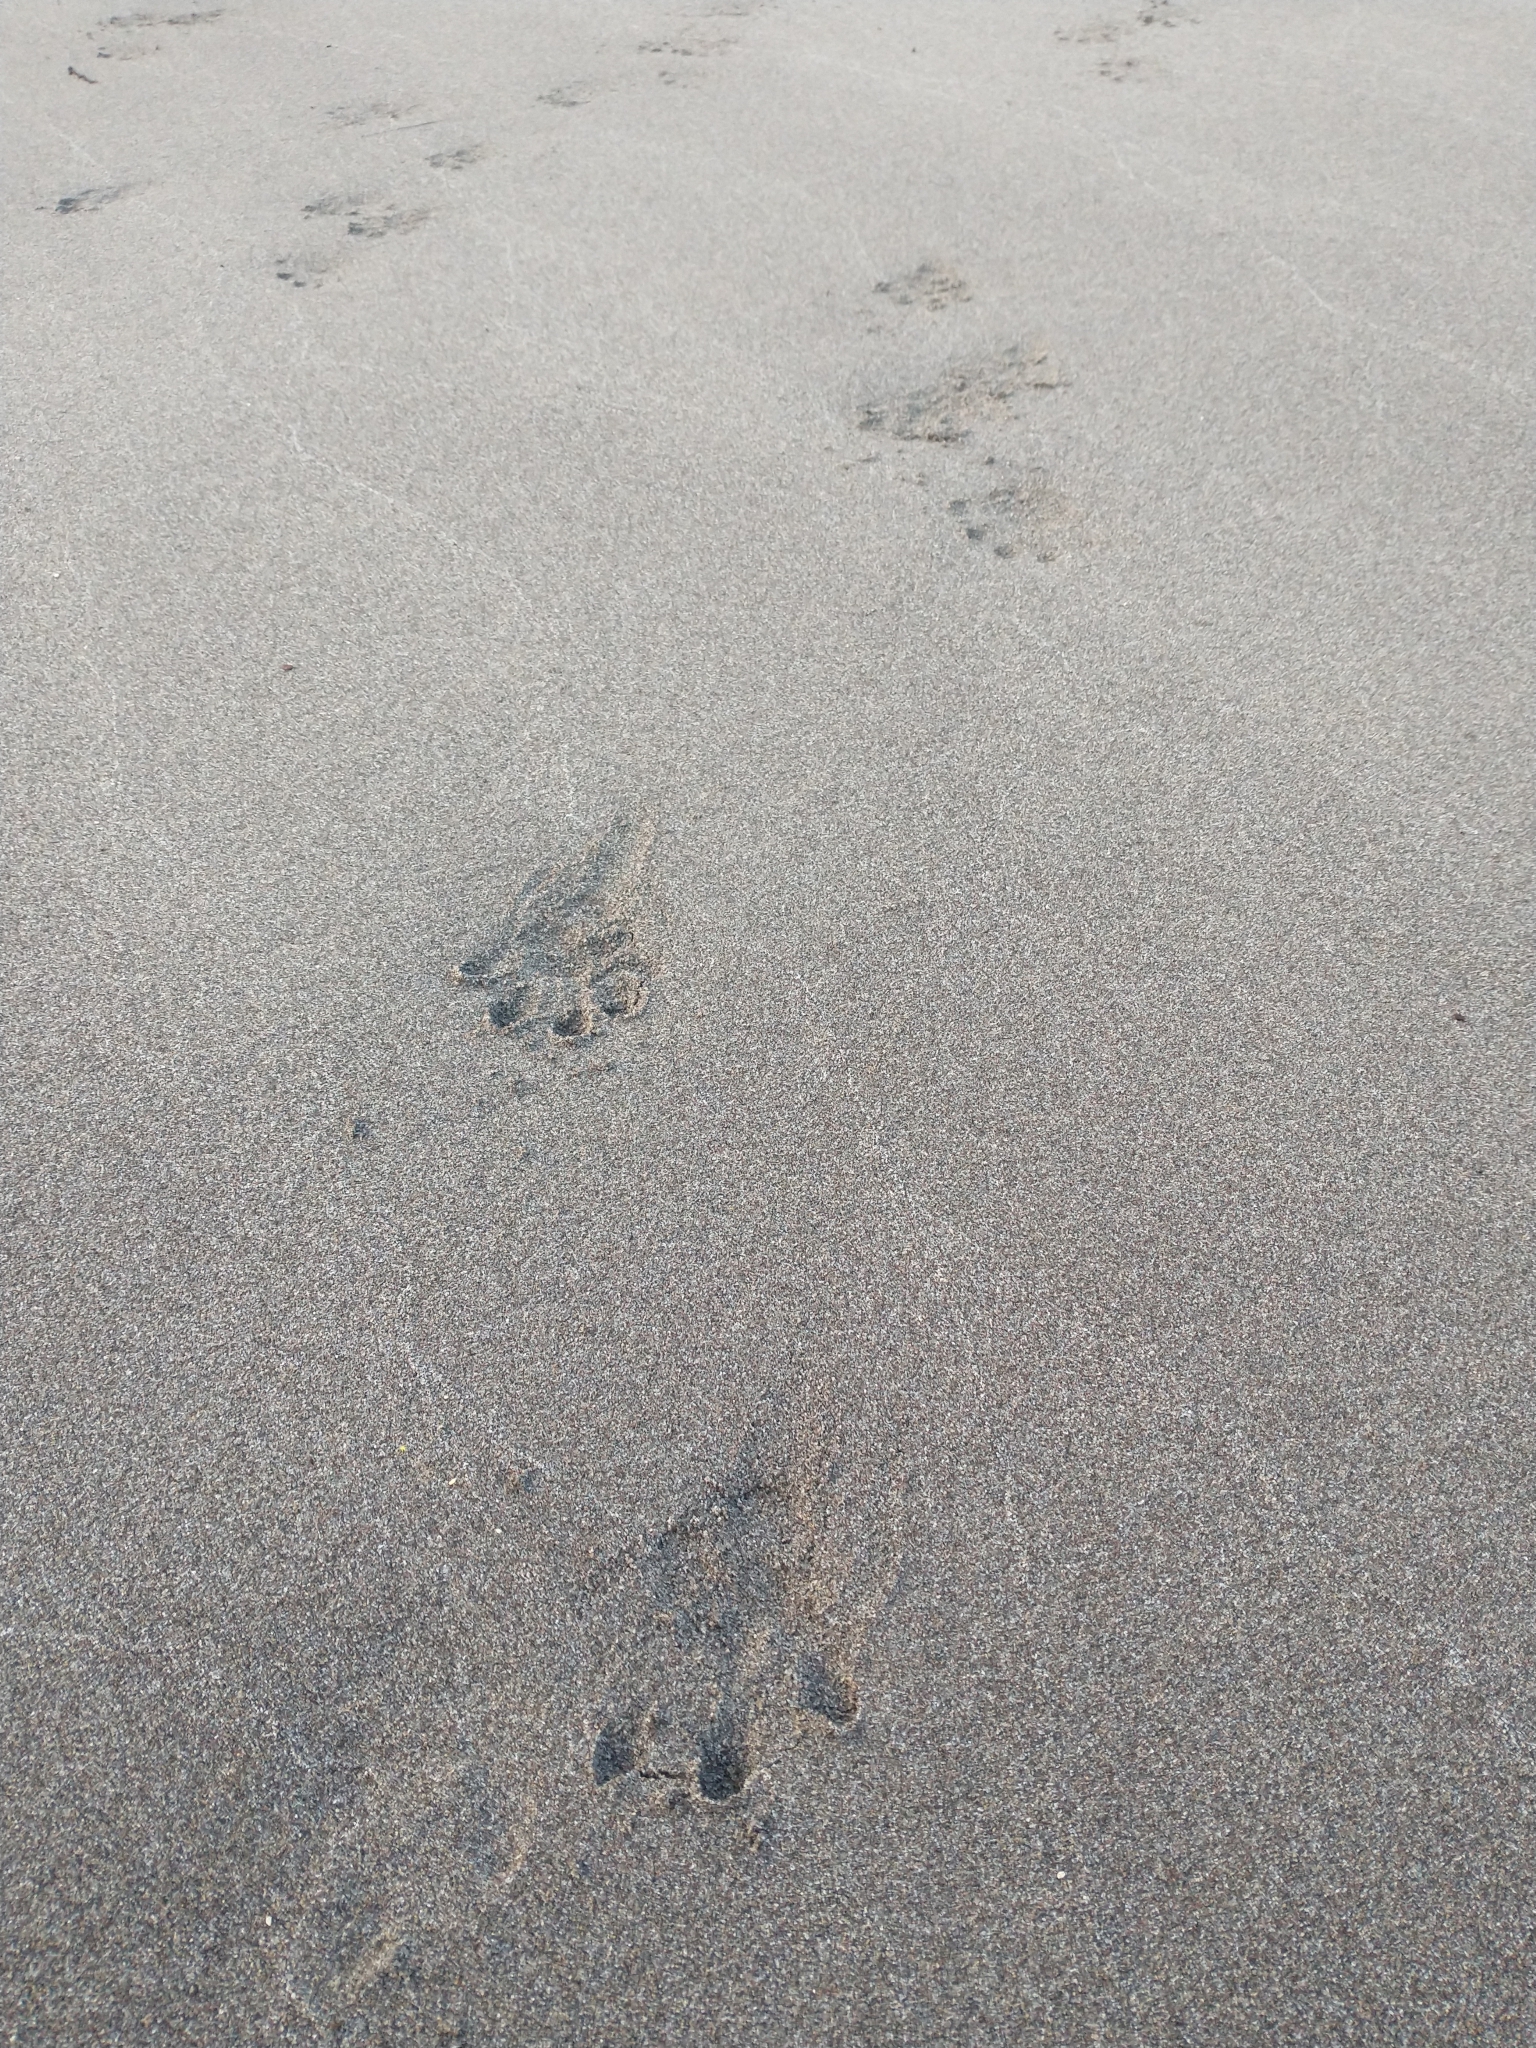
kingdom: Animalia
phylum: Chordata
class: Mammalia
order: Carnivora
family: Mustelidae
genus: Lontra
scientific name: Lontra canadensis
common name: North american river otter
